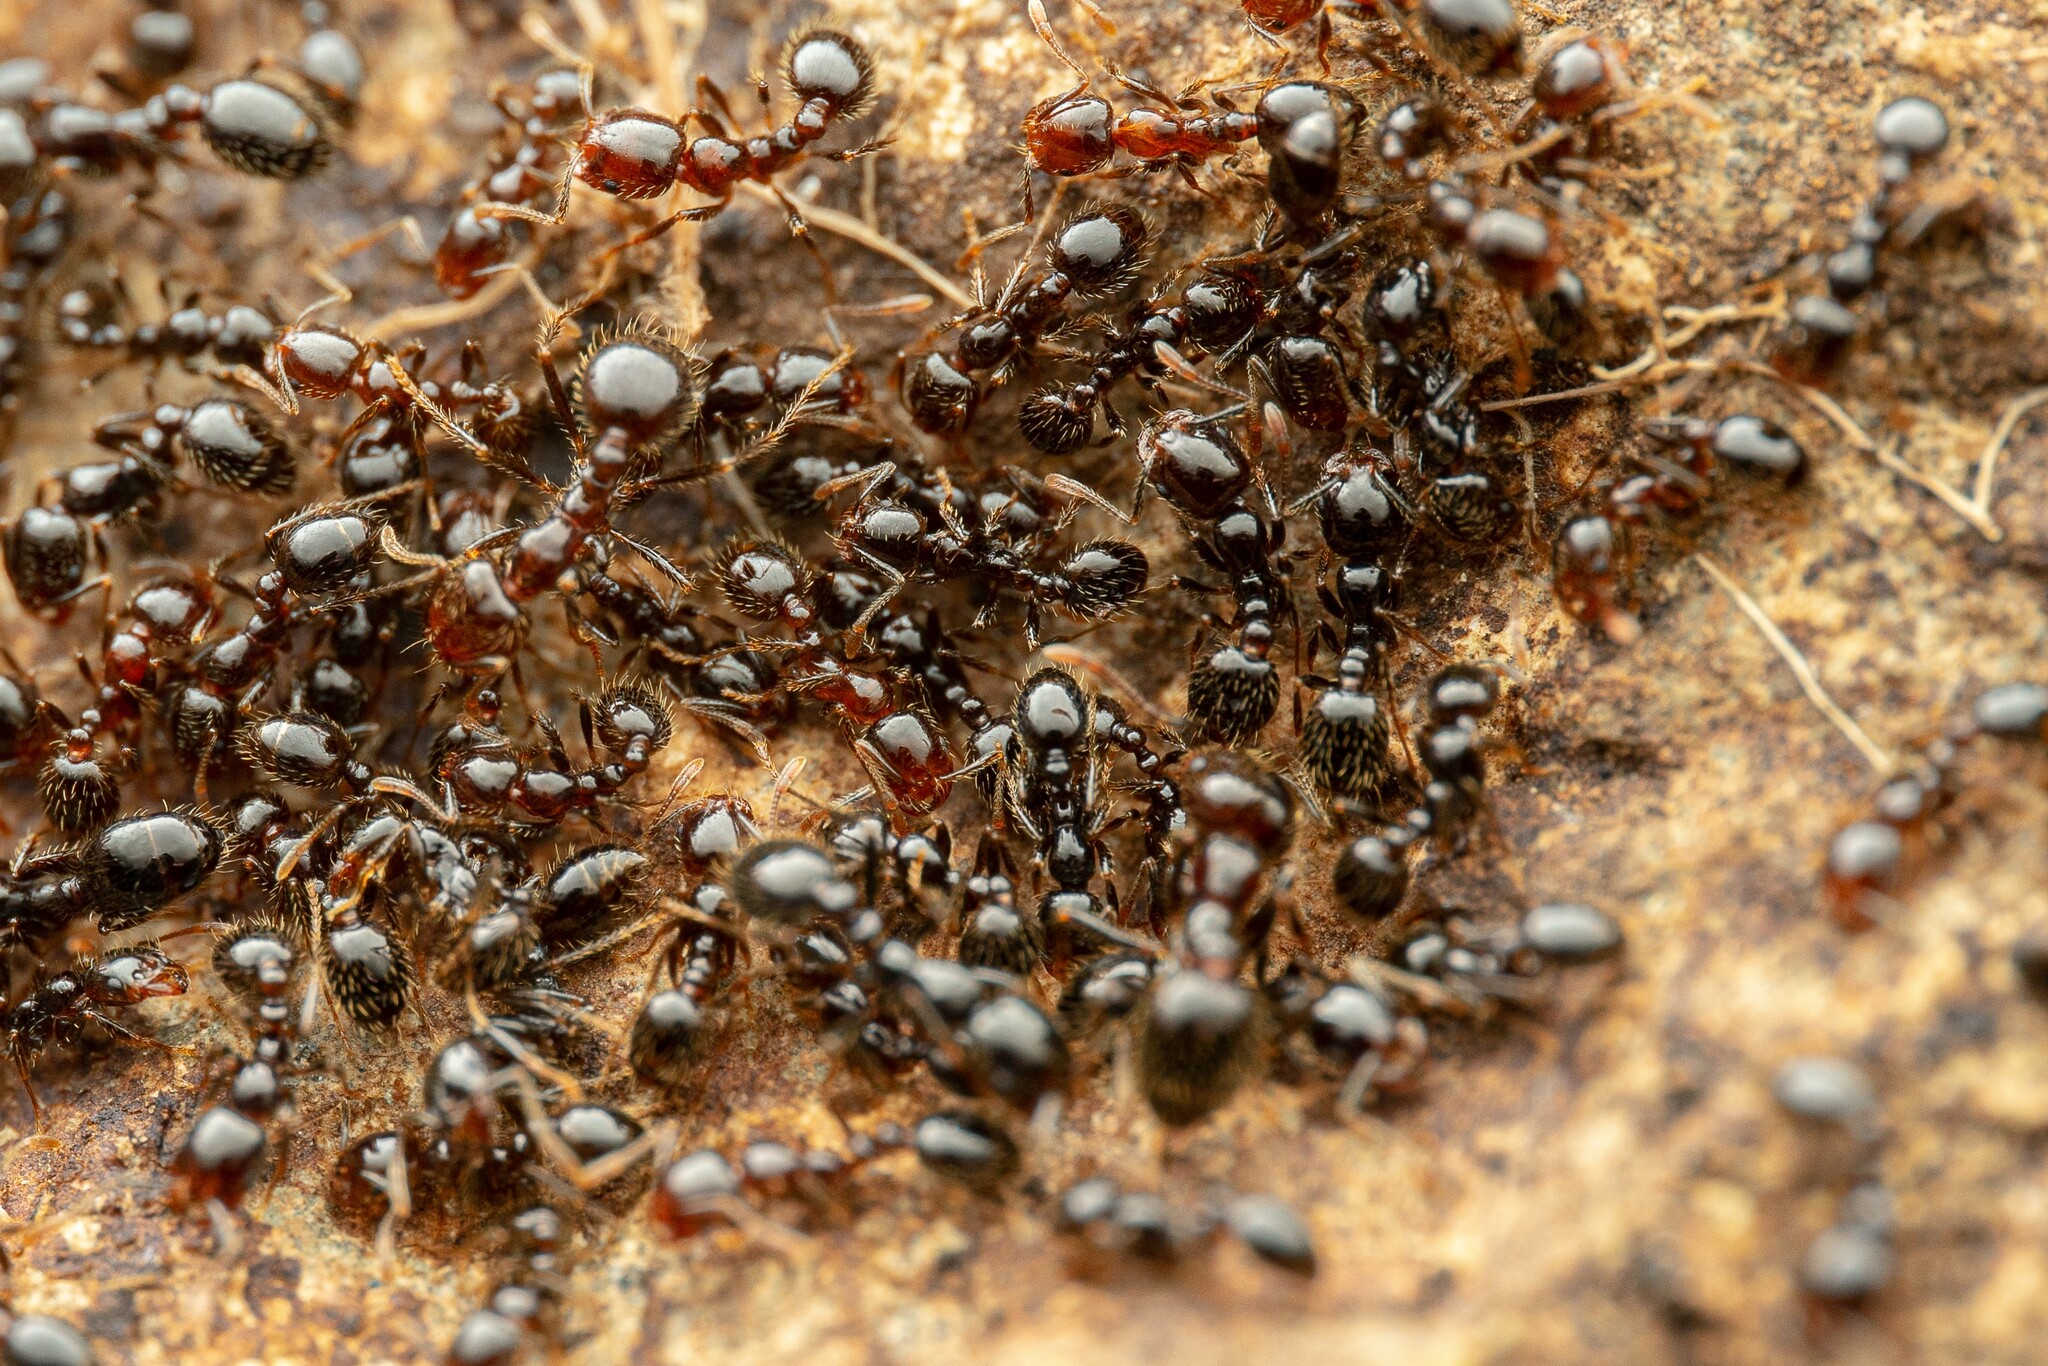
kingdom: Animalia
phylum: Arthropoda
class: Insecta
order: Hymenoptera
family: Formicidae
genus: Solenopsis
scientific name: Solenopsis xyloni
